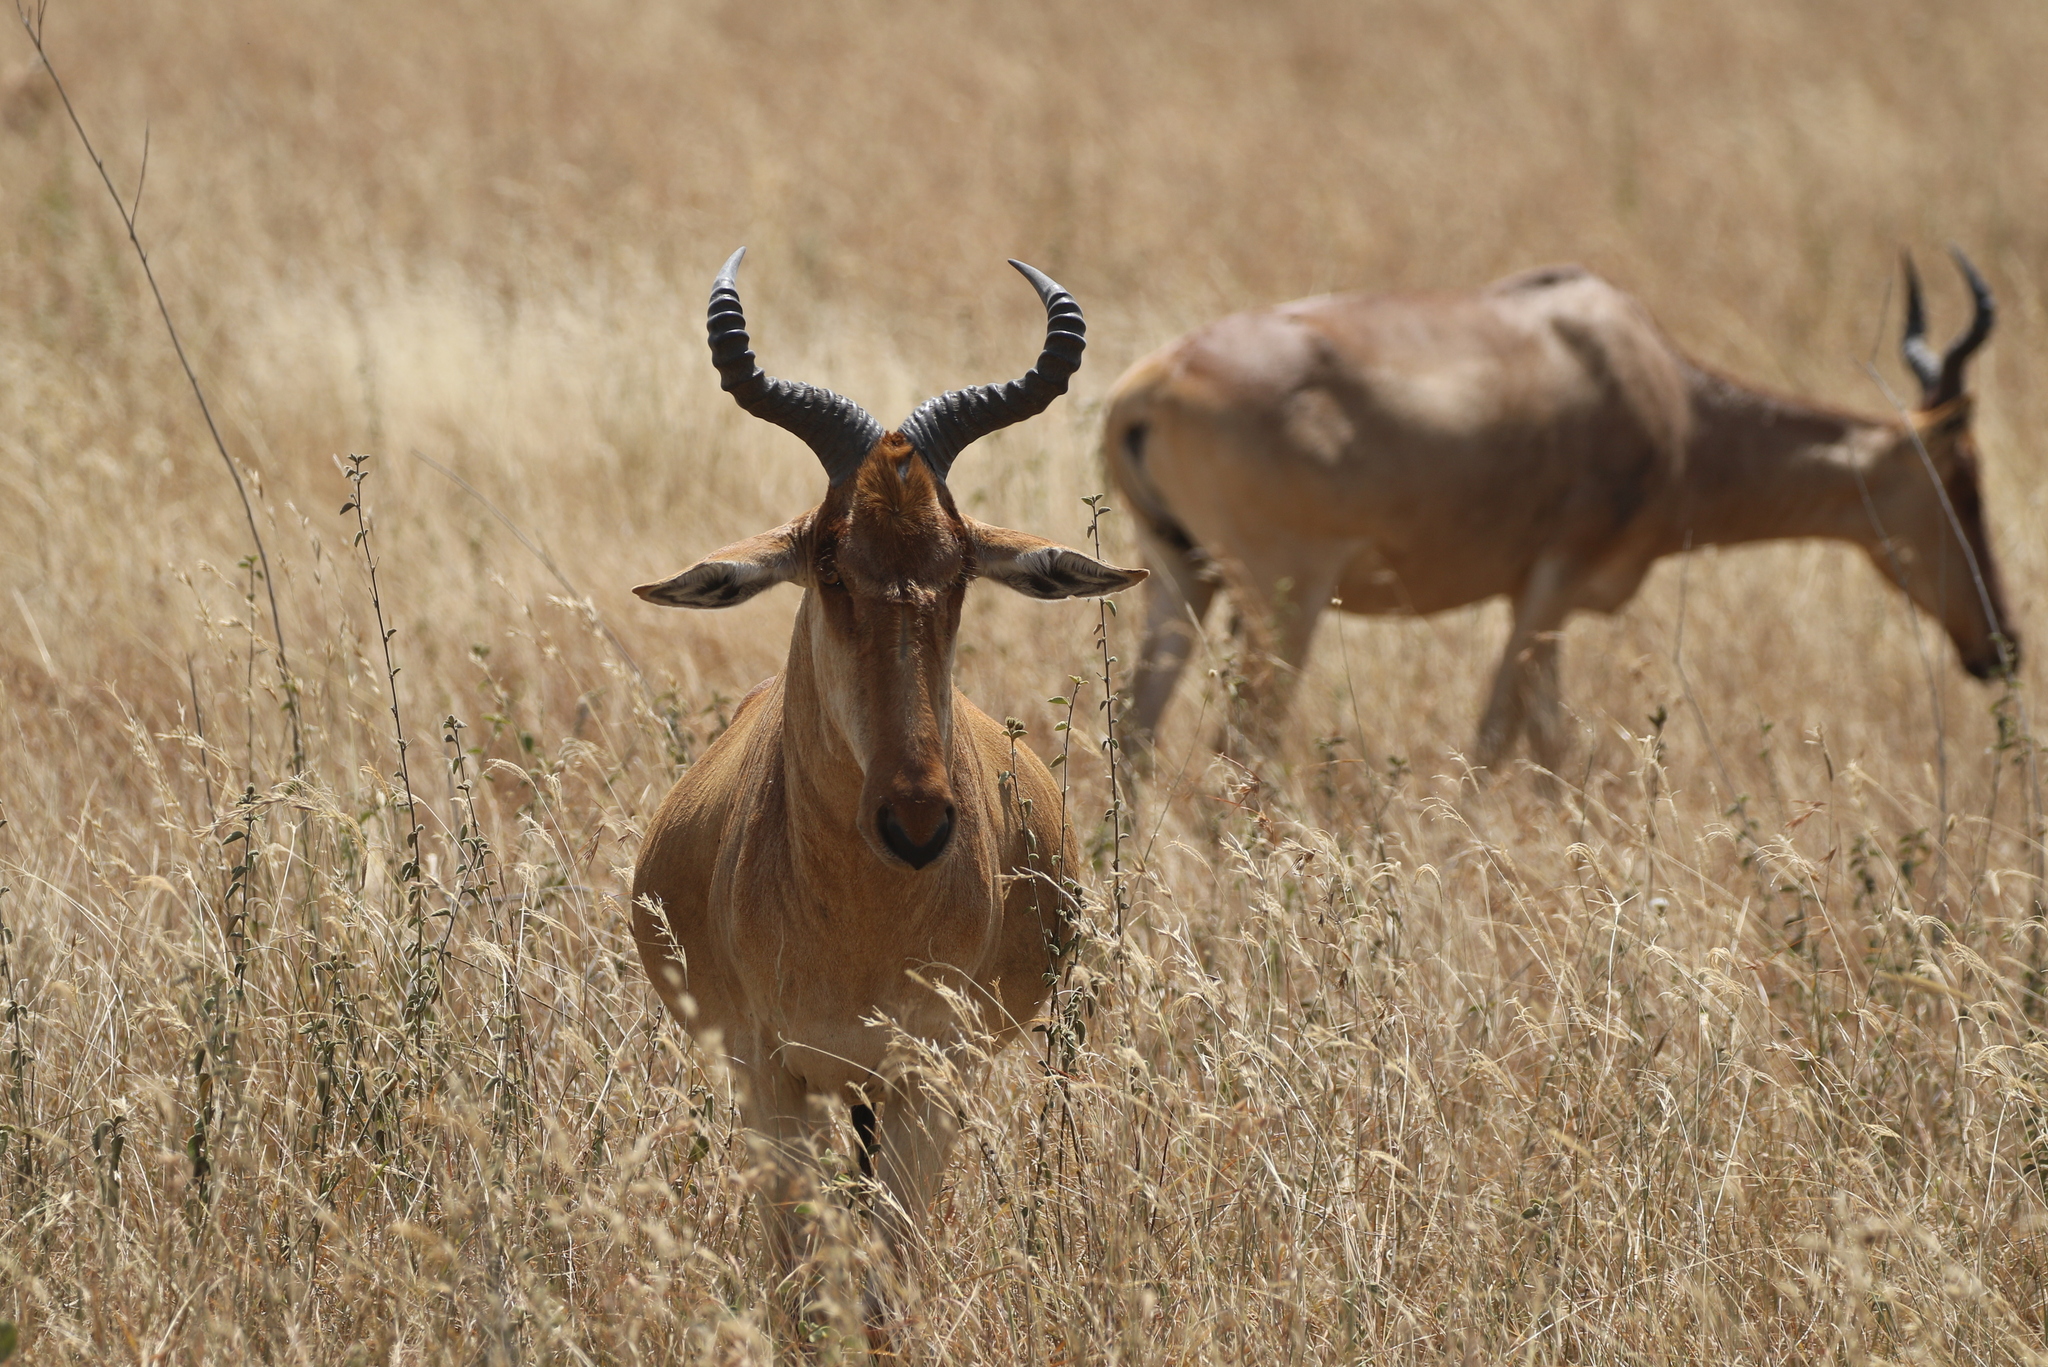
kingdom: Animalia
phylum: Chordata
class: Mammalia
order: Artiodactyla
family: Bovidae
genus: Alcelaphus
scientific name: Alcelaphus buselaphus
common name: Hartebeest
